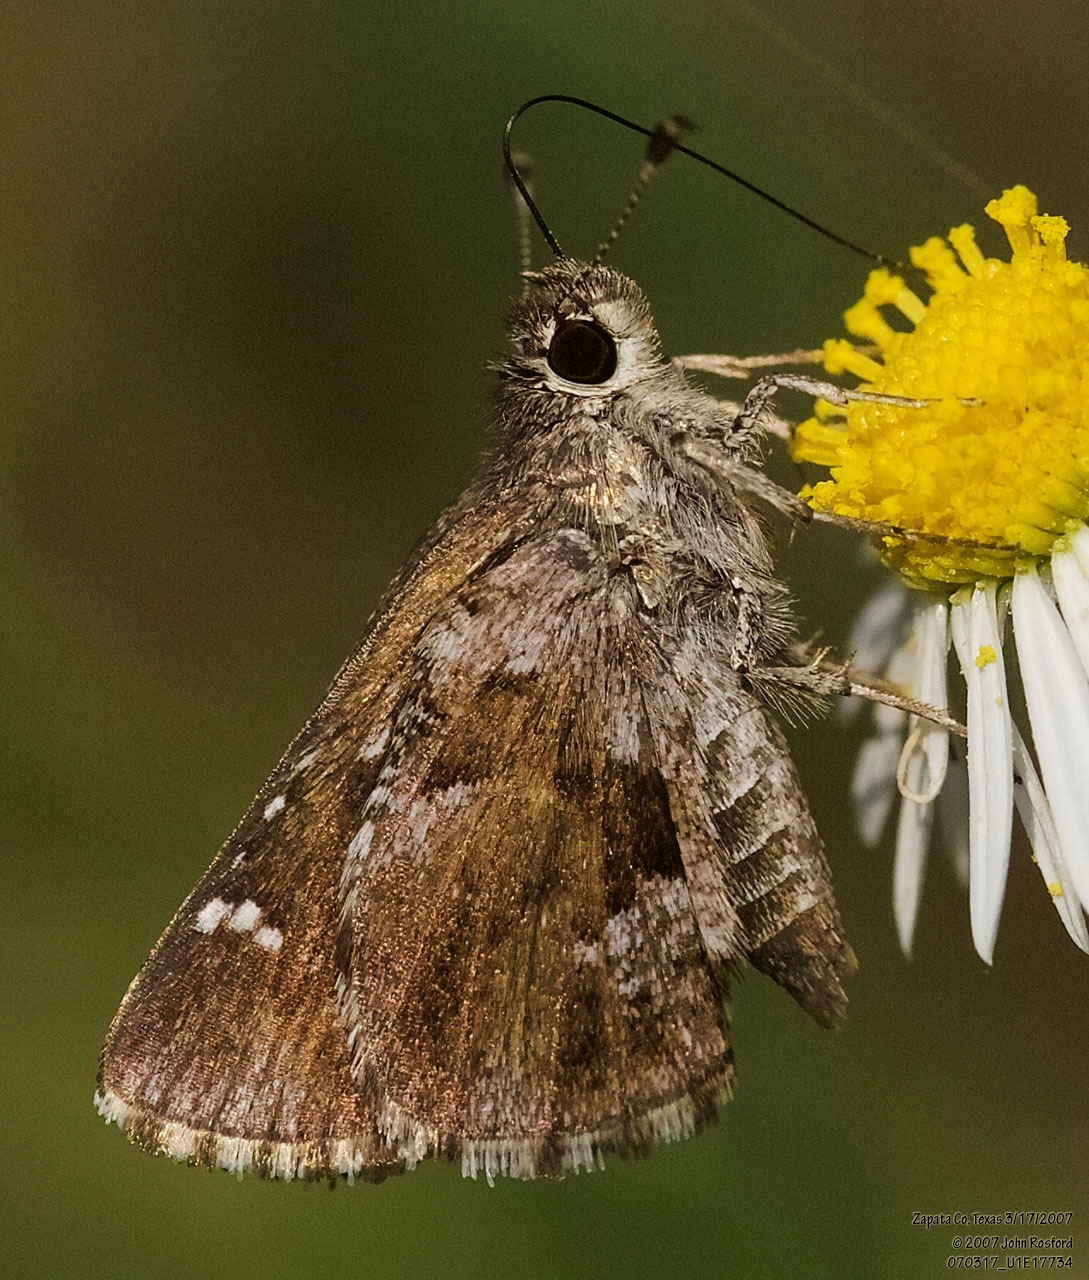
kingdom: Animalia
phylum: Arthropoda
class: Insecta
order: Lepidoptera
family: Hesperiidae
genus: Mastor
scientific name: Mastor nysa
